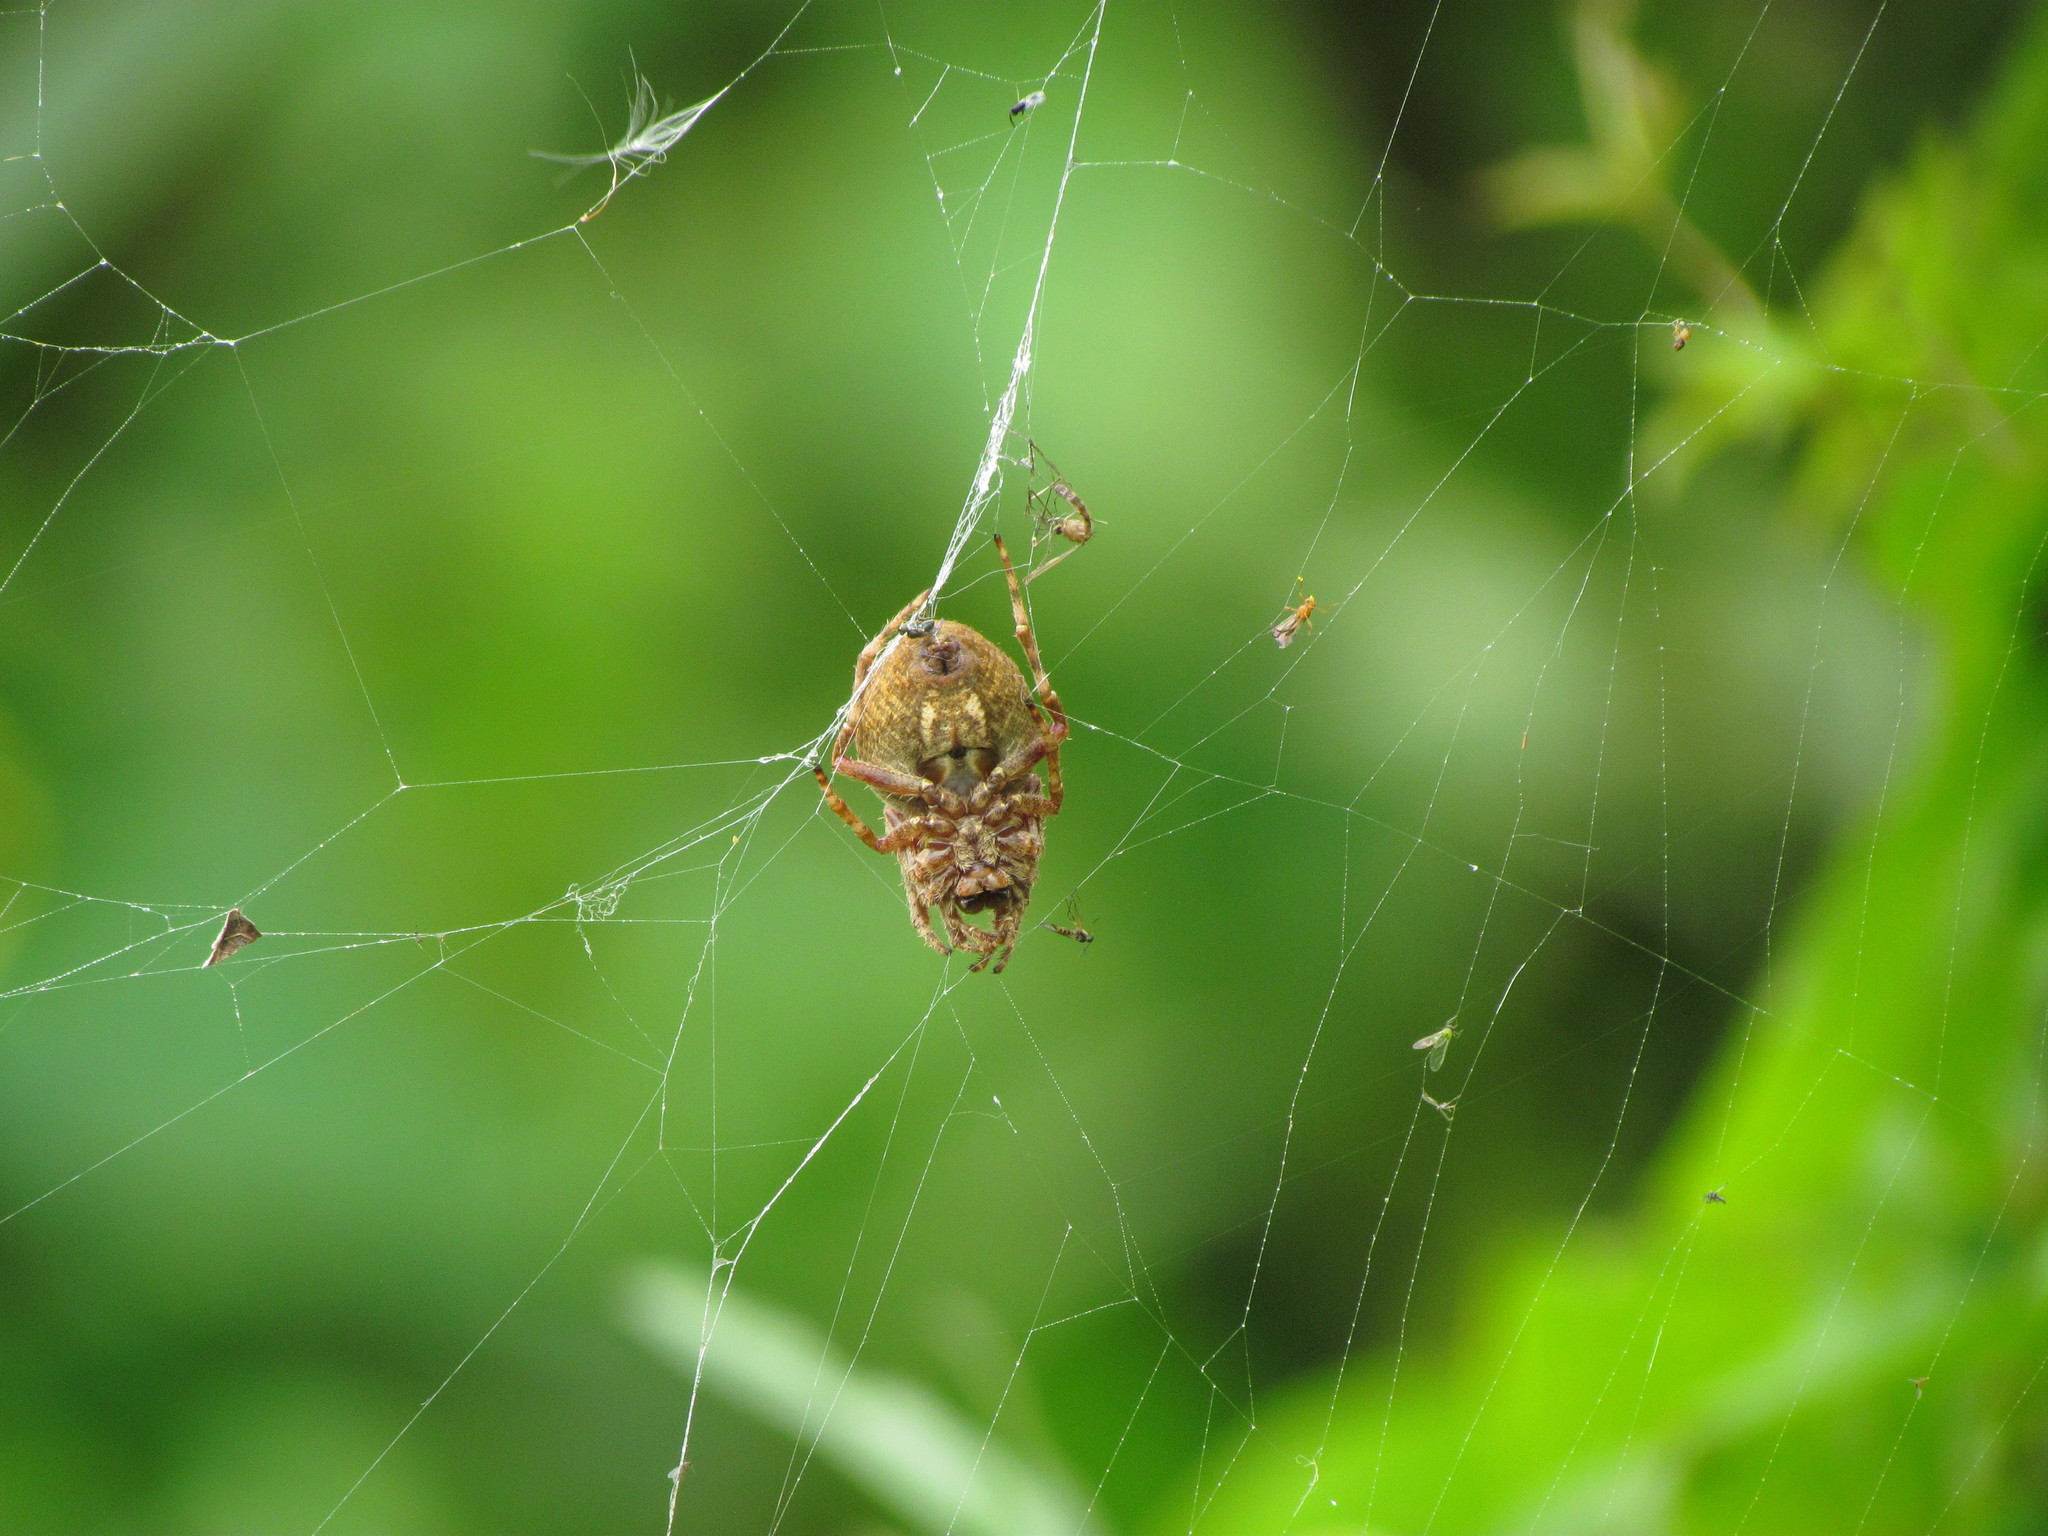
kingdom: Animalia
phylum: Arthropoda
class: Arachnida
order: Araneae
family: Araneidae
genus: Parawixia
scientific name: Parawixia audax
